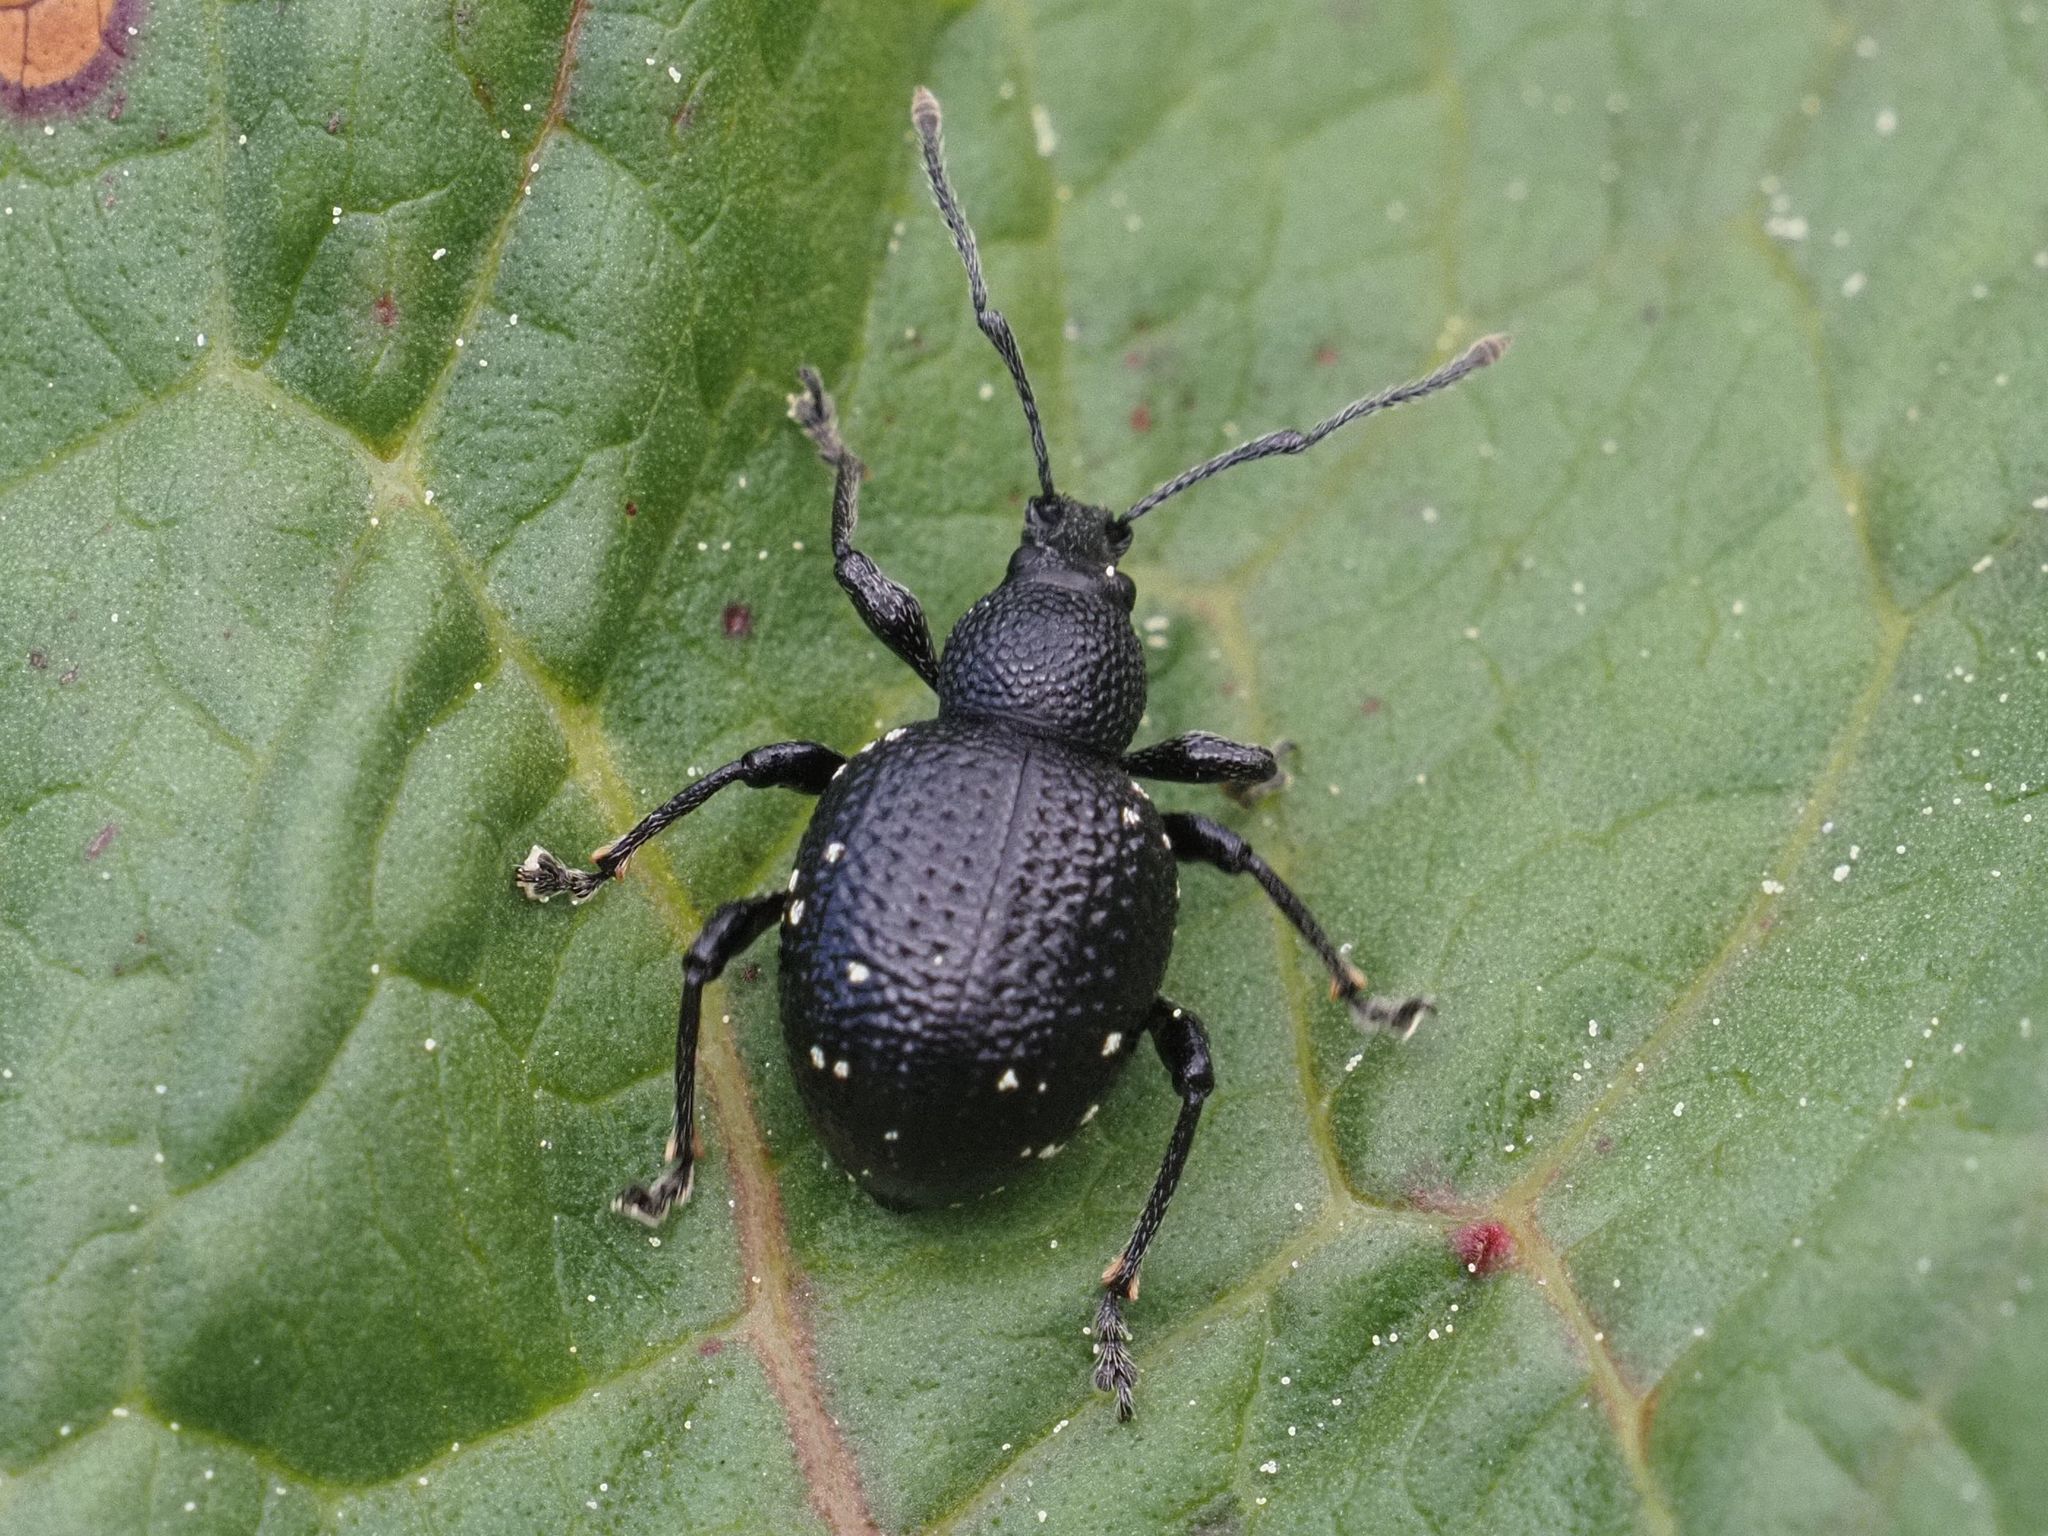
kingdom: Animalia
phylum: Arthropoda
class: Insecta
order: Coleoptera
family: Curculionidae
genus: Otiorhynchus
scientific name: Otiorhynchus gemmatus
